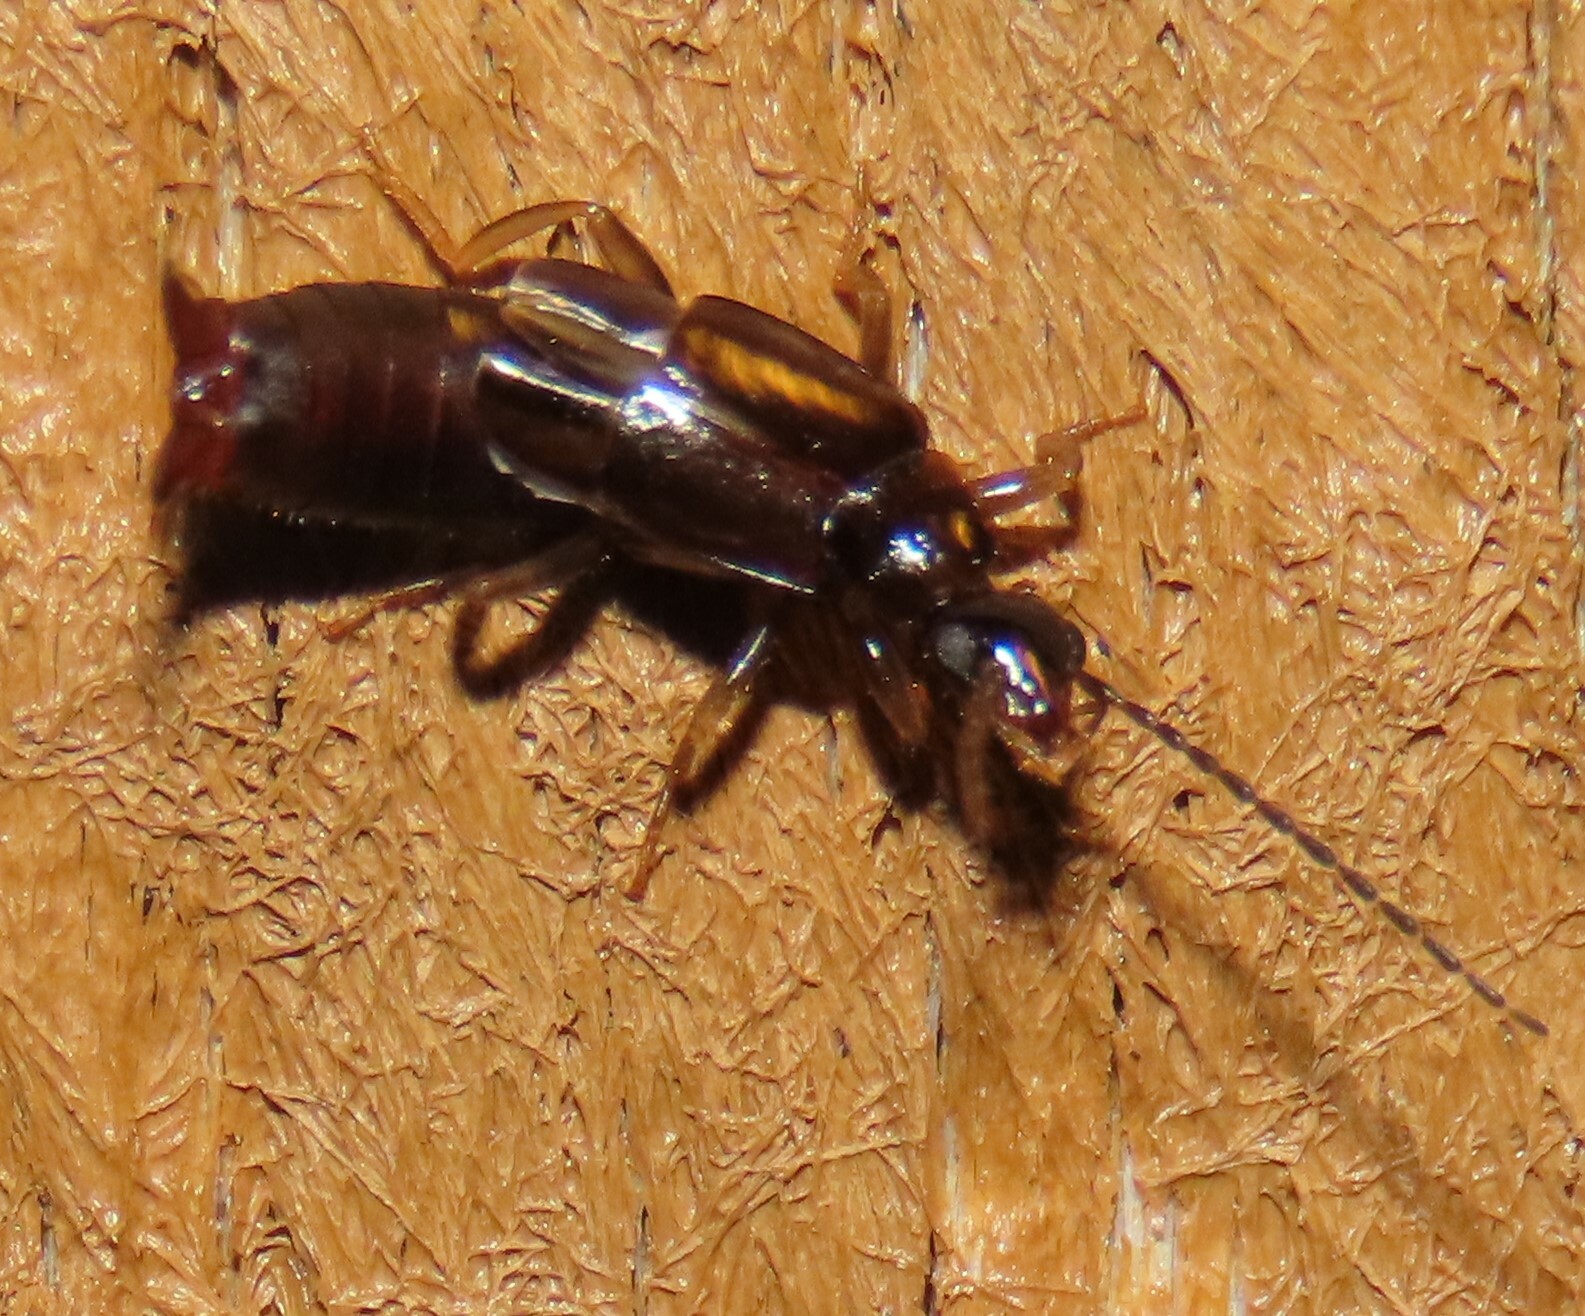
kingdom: Animalia
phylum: Arthropoda
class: Insecta
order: Dermaptera
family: Spongiphoridae
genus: Nesogaster
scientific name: Nesogaster halli
